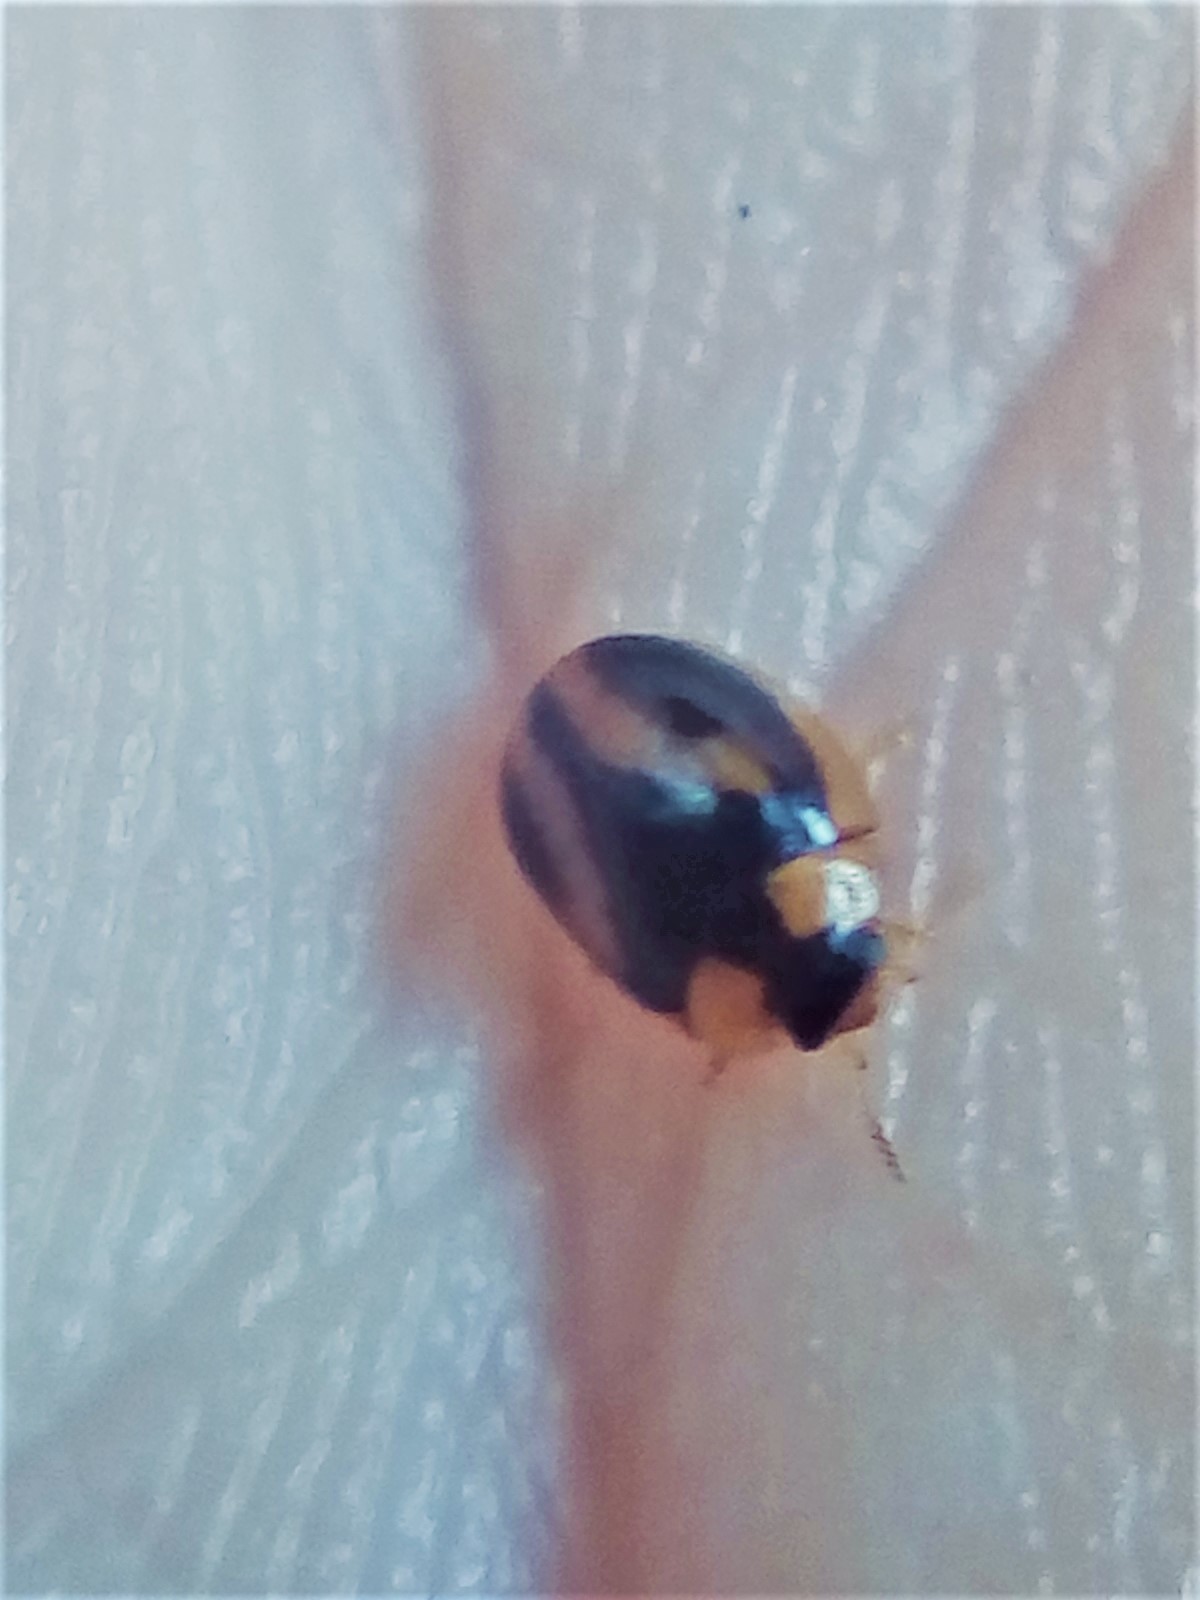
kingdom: Animalia
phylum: Arthropoda
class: Insecta
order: Coleoptera
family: Chrysomelidae
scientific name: Chrysomelidae
